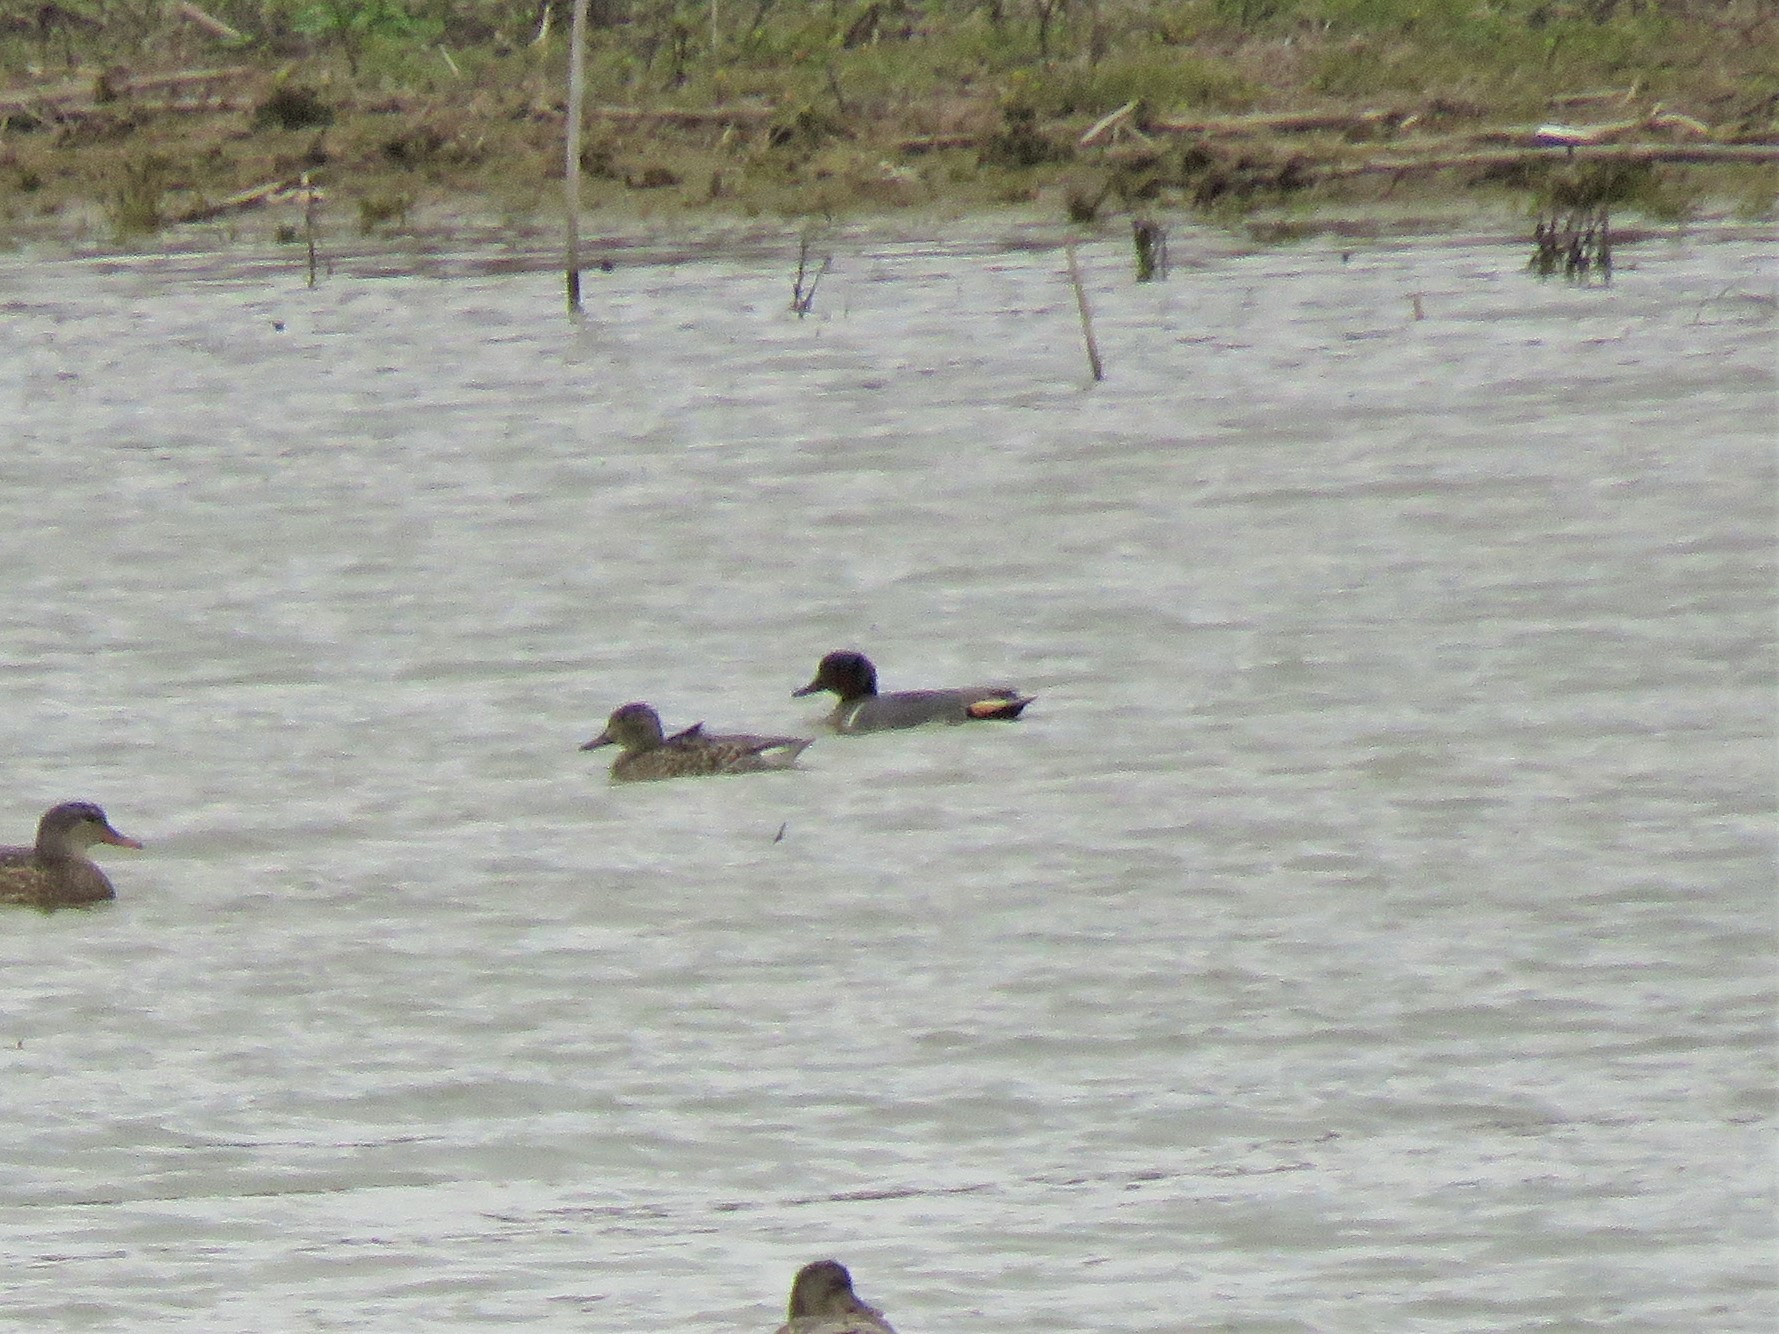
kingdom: Animalia
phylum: Chordata
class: Aves
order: Anseriformes
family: Anatidae
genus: Anas
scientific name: Anas crecca
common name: Eurasian teal
